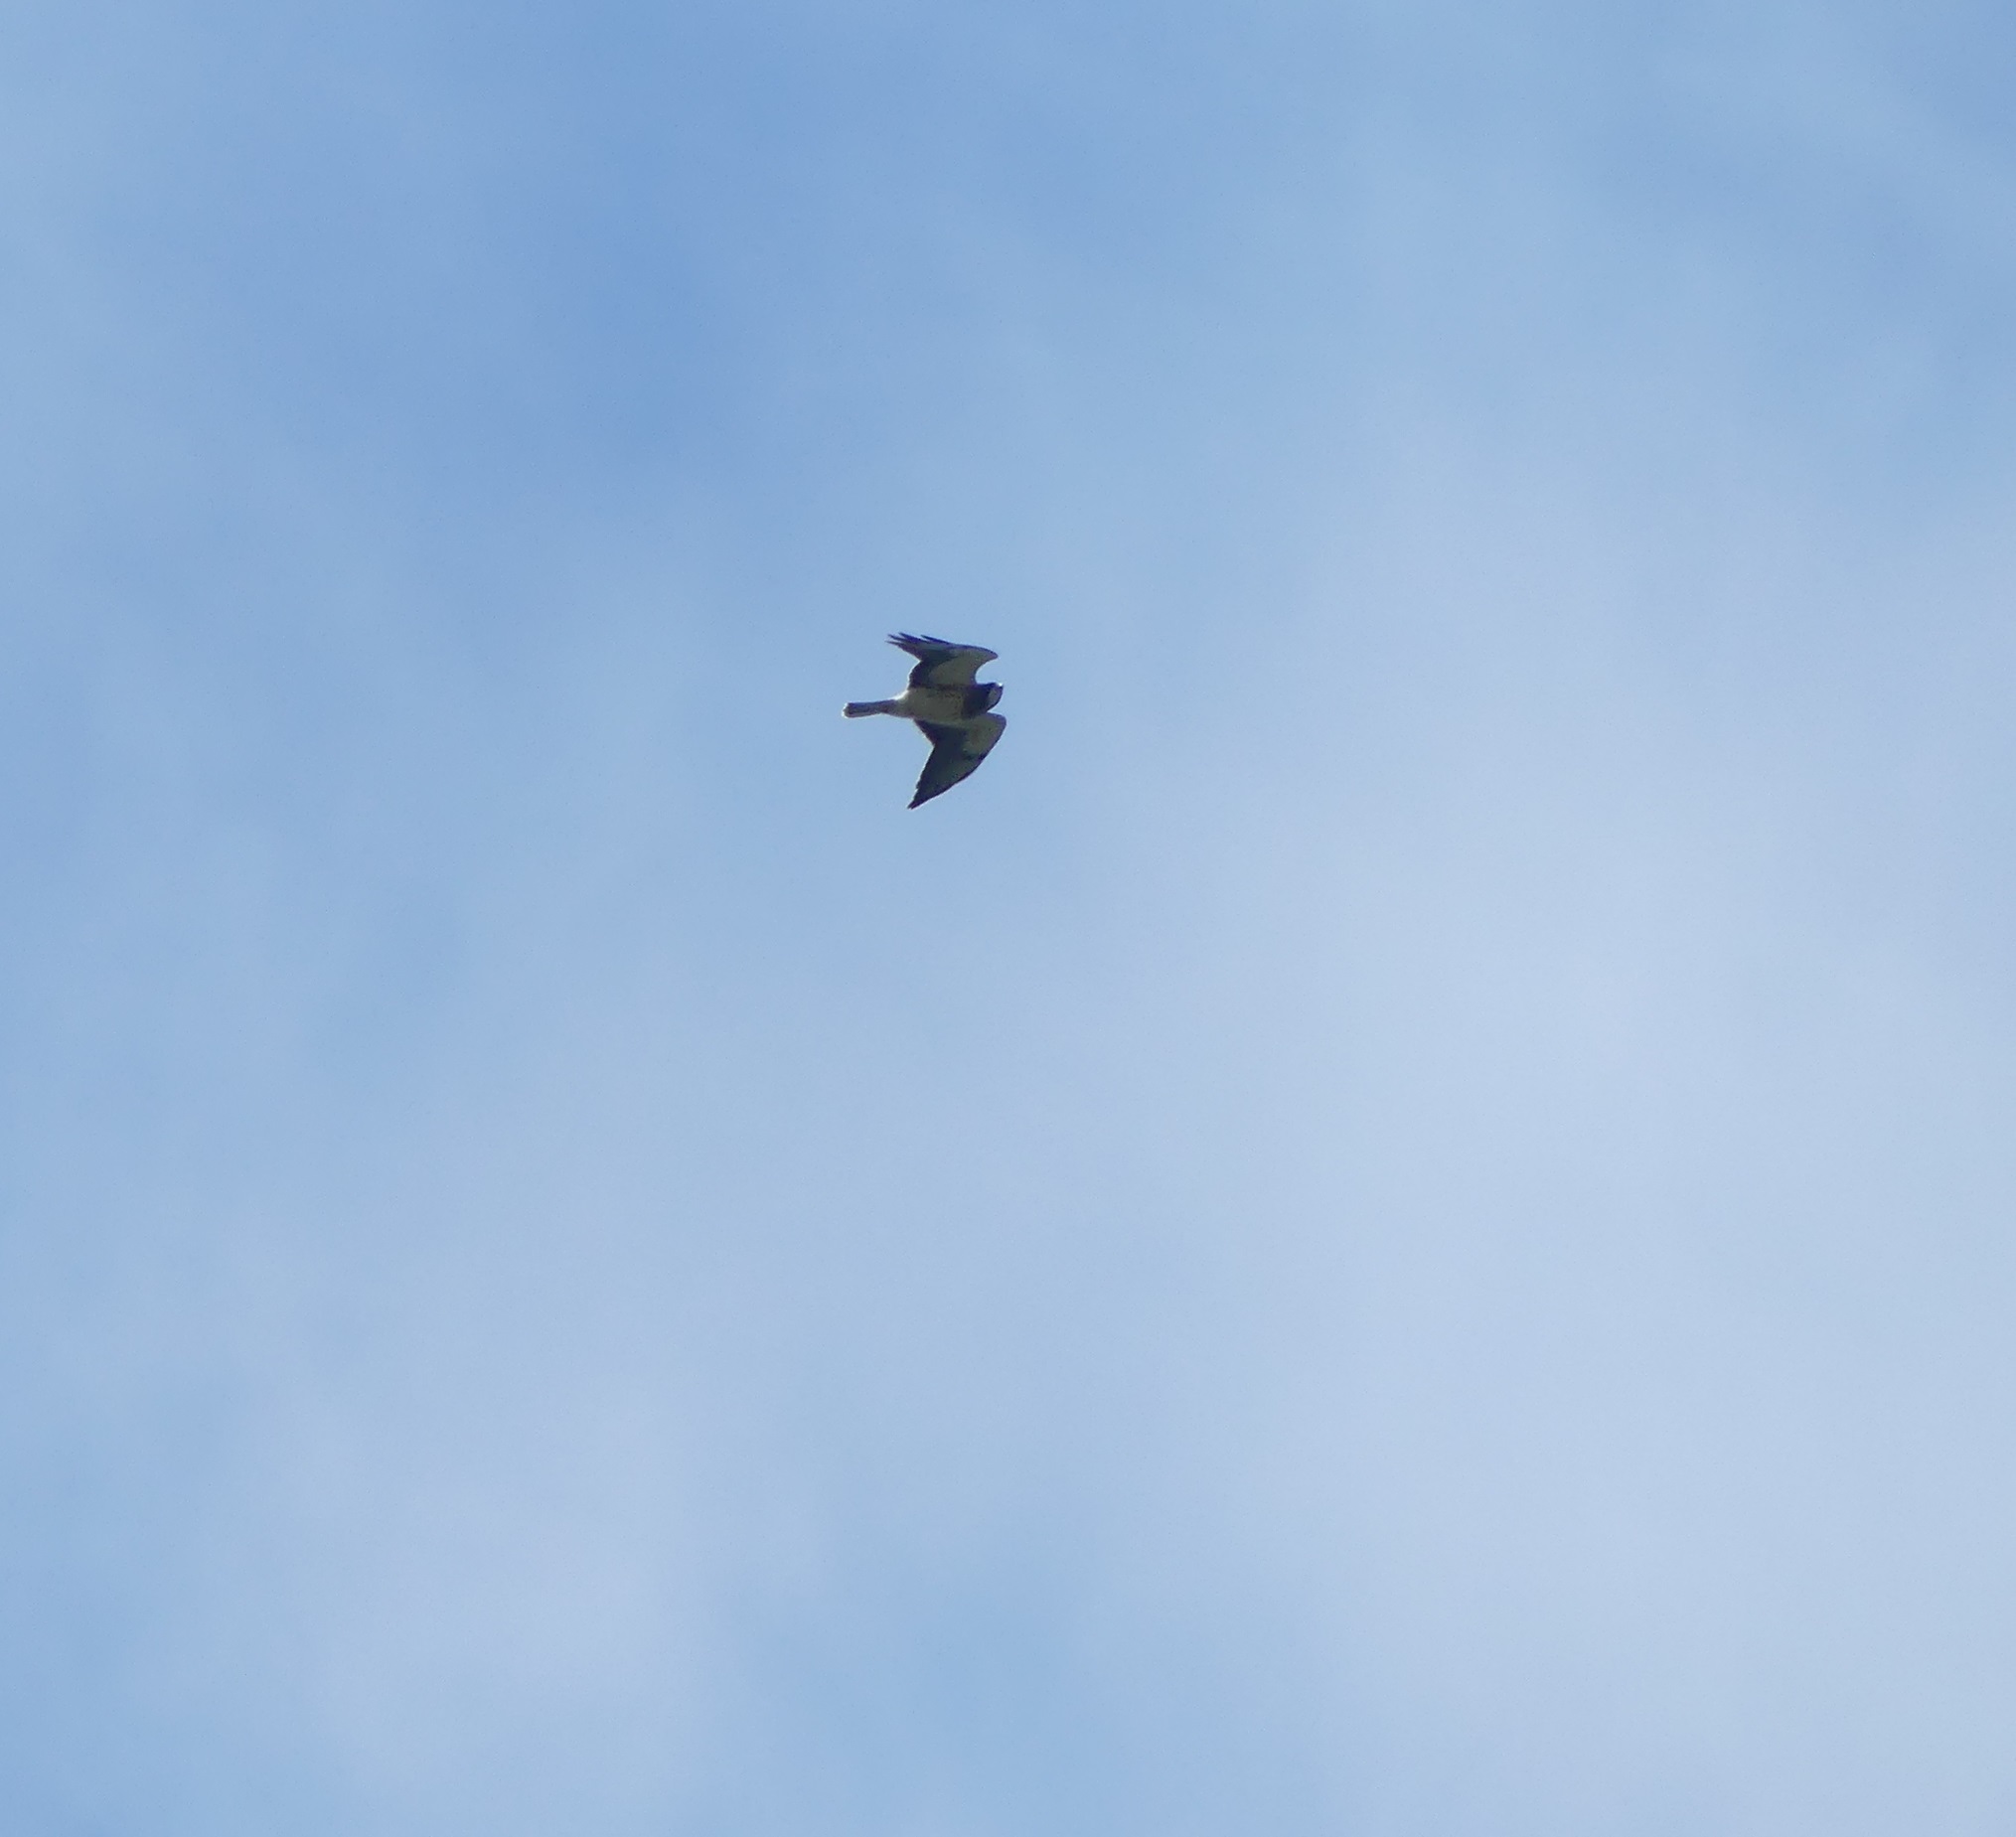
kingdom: Animalia
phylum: Chordata
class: Aves
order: Accipitriformes
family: Accipitridae
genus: Buteo
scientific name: Buteo swainsoni
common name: Swainson's hawk
